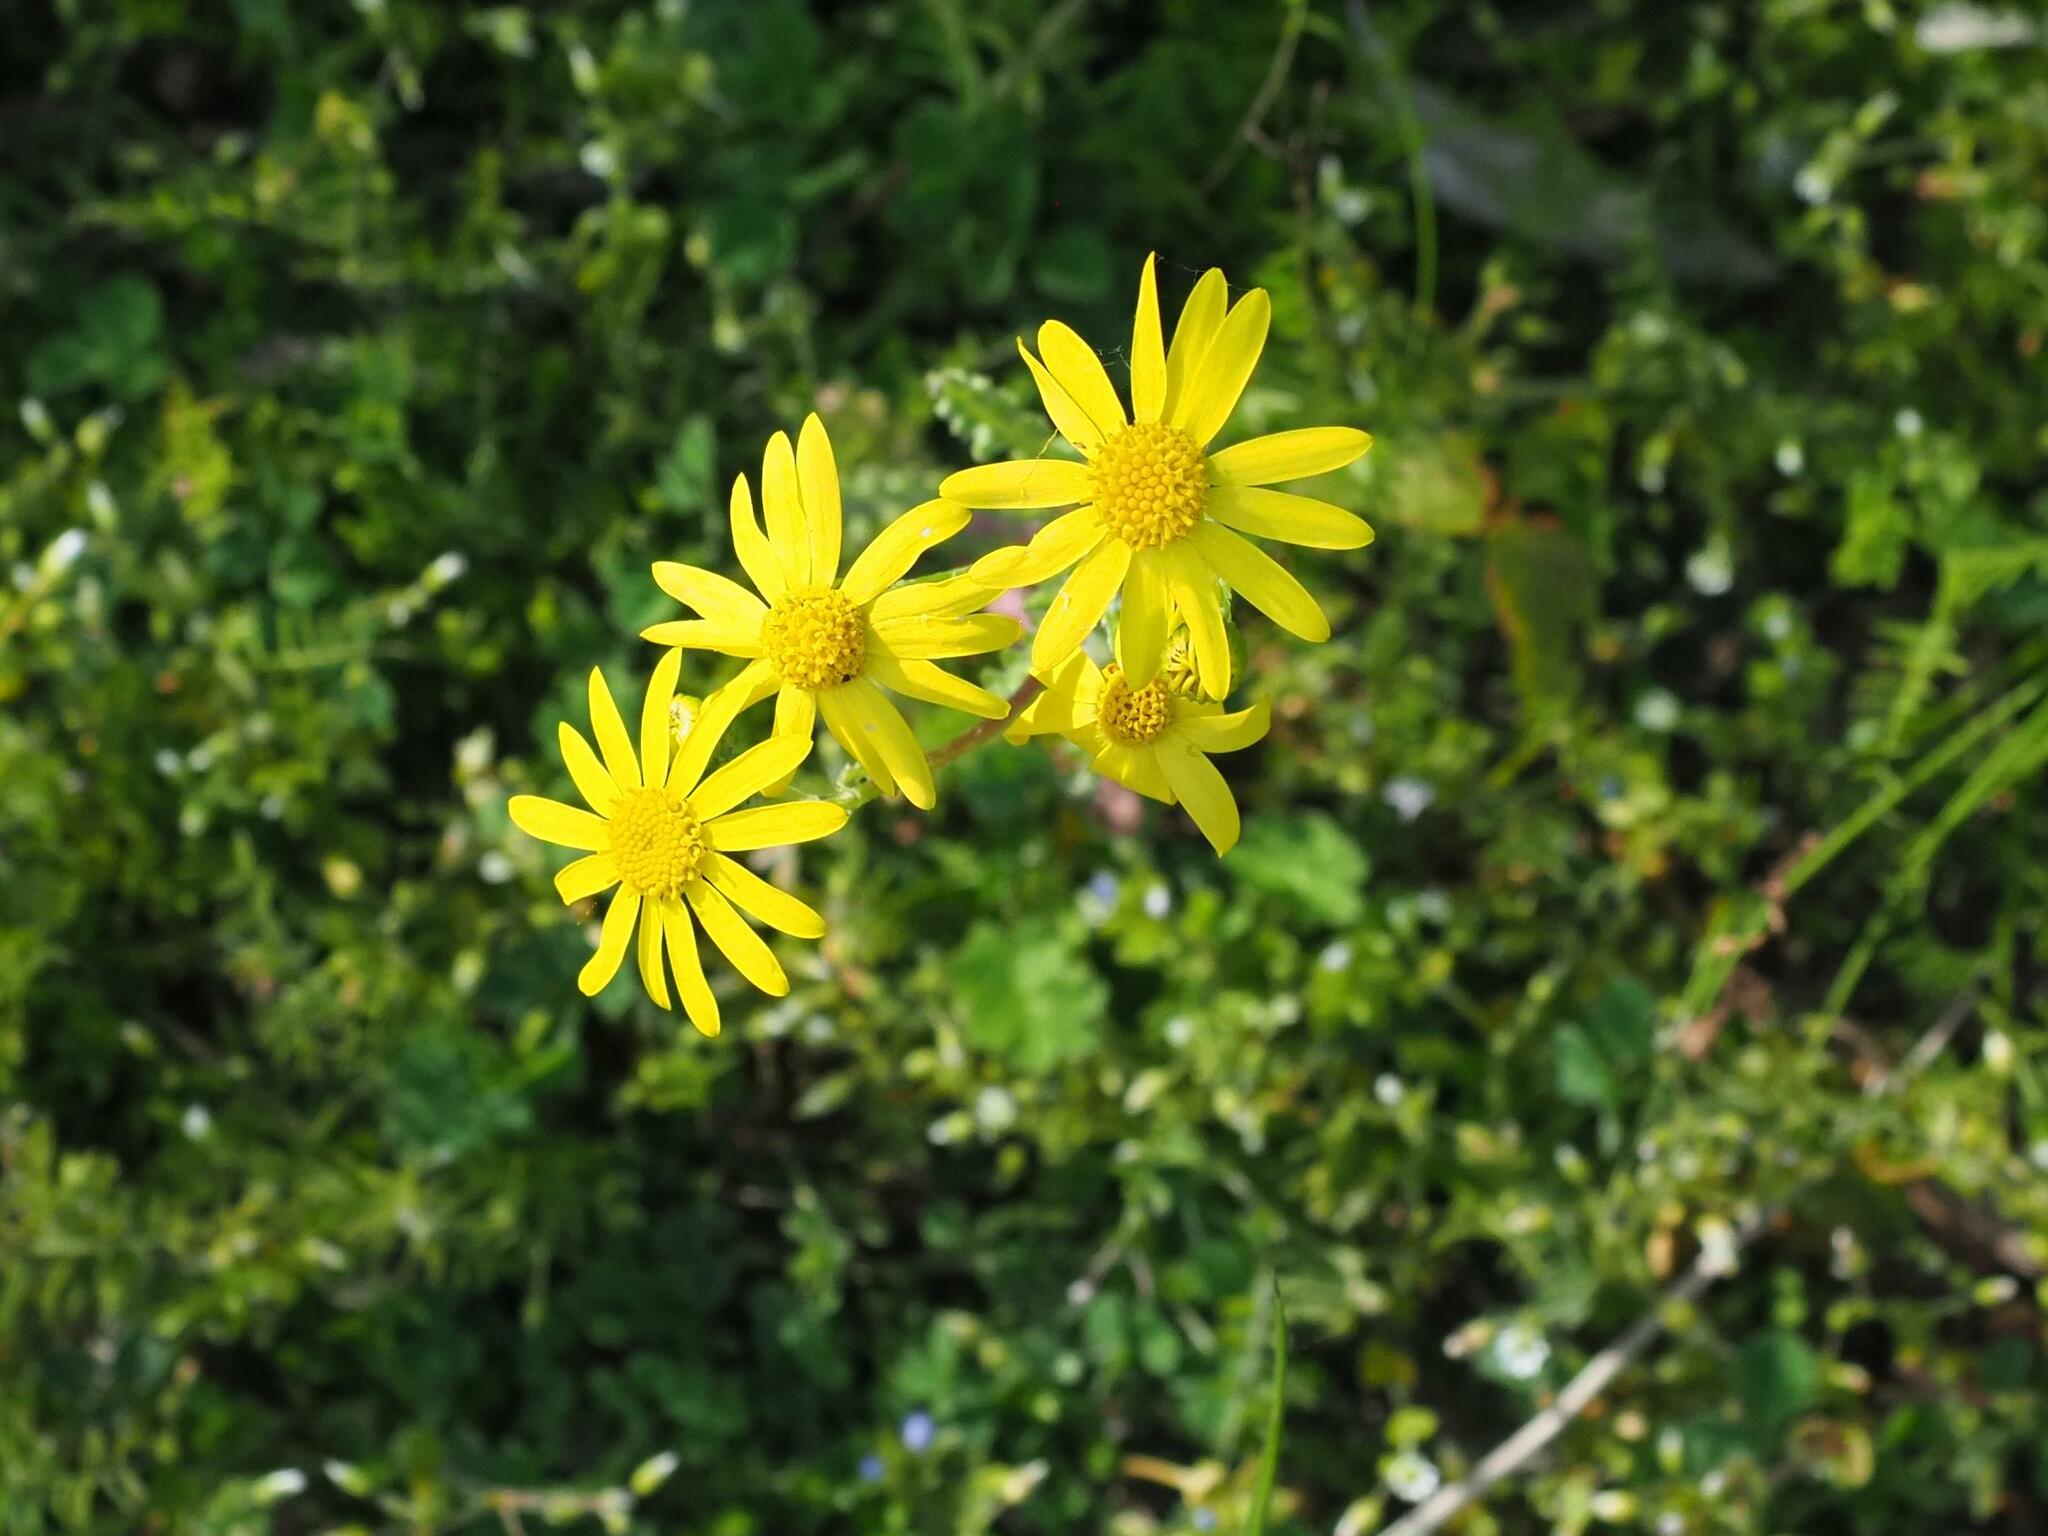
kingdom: Plantae
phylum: Tracheophyta
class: Magnoliopsida
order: Asterales
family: Asteraceae
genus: Senecio
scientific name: Senecio vernalis
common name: Eastern groundsel
